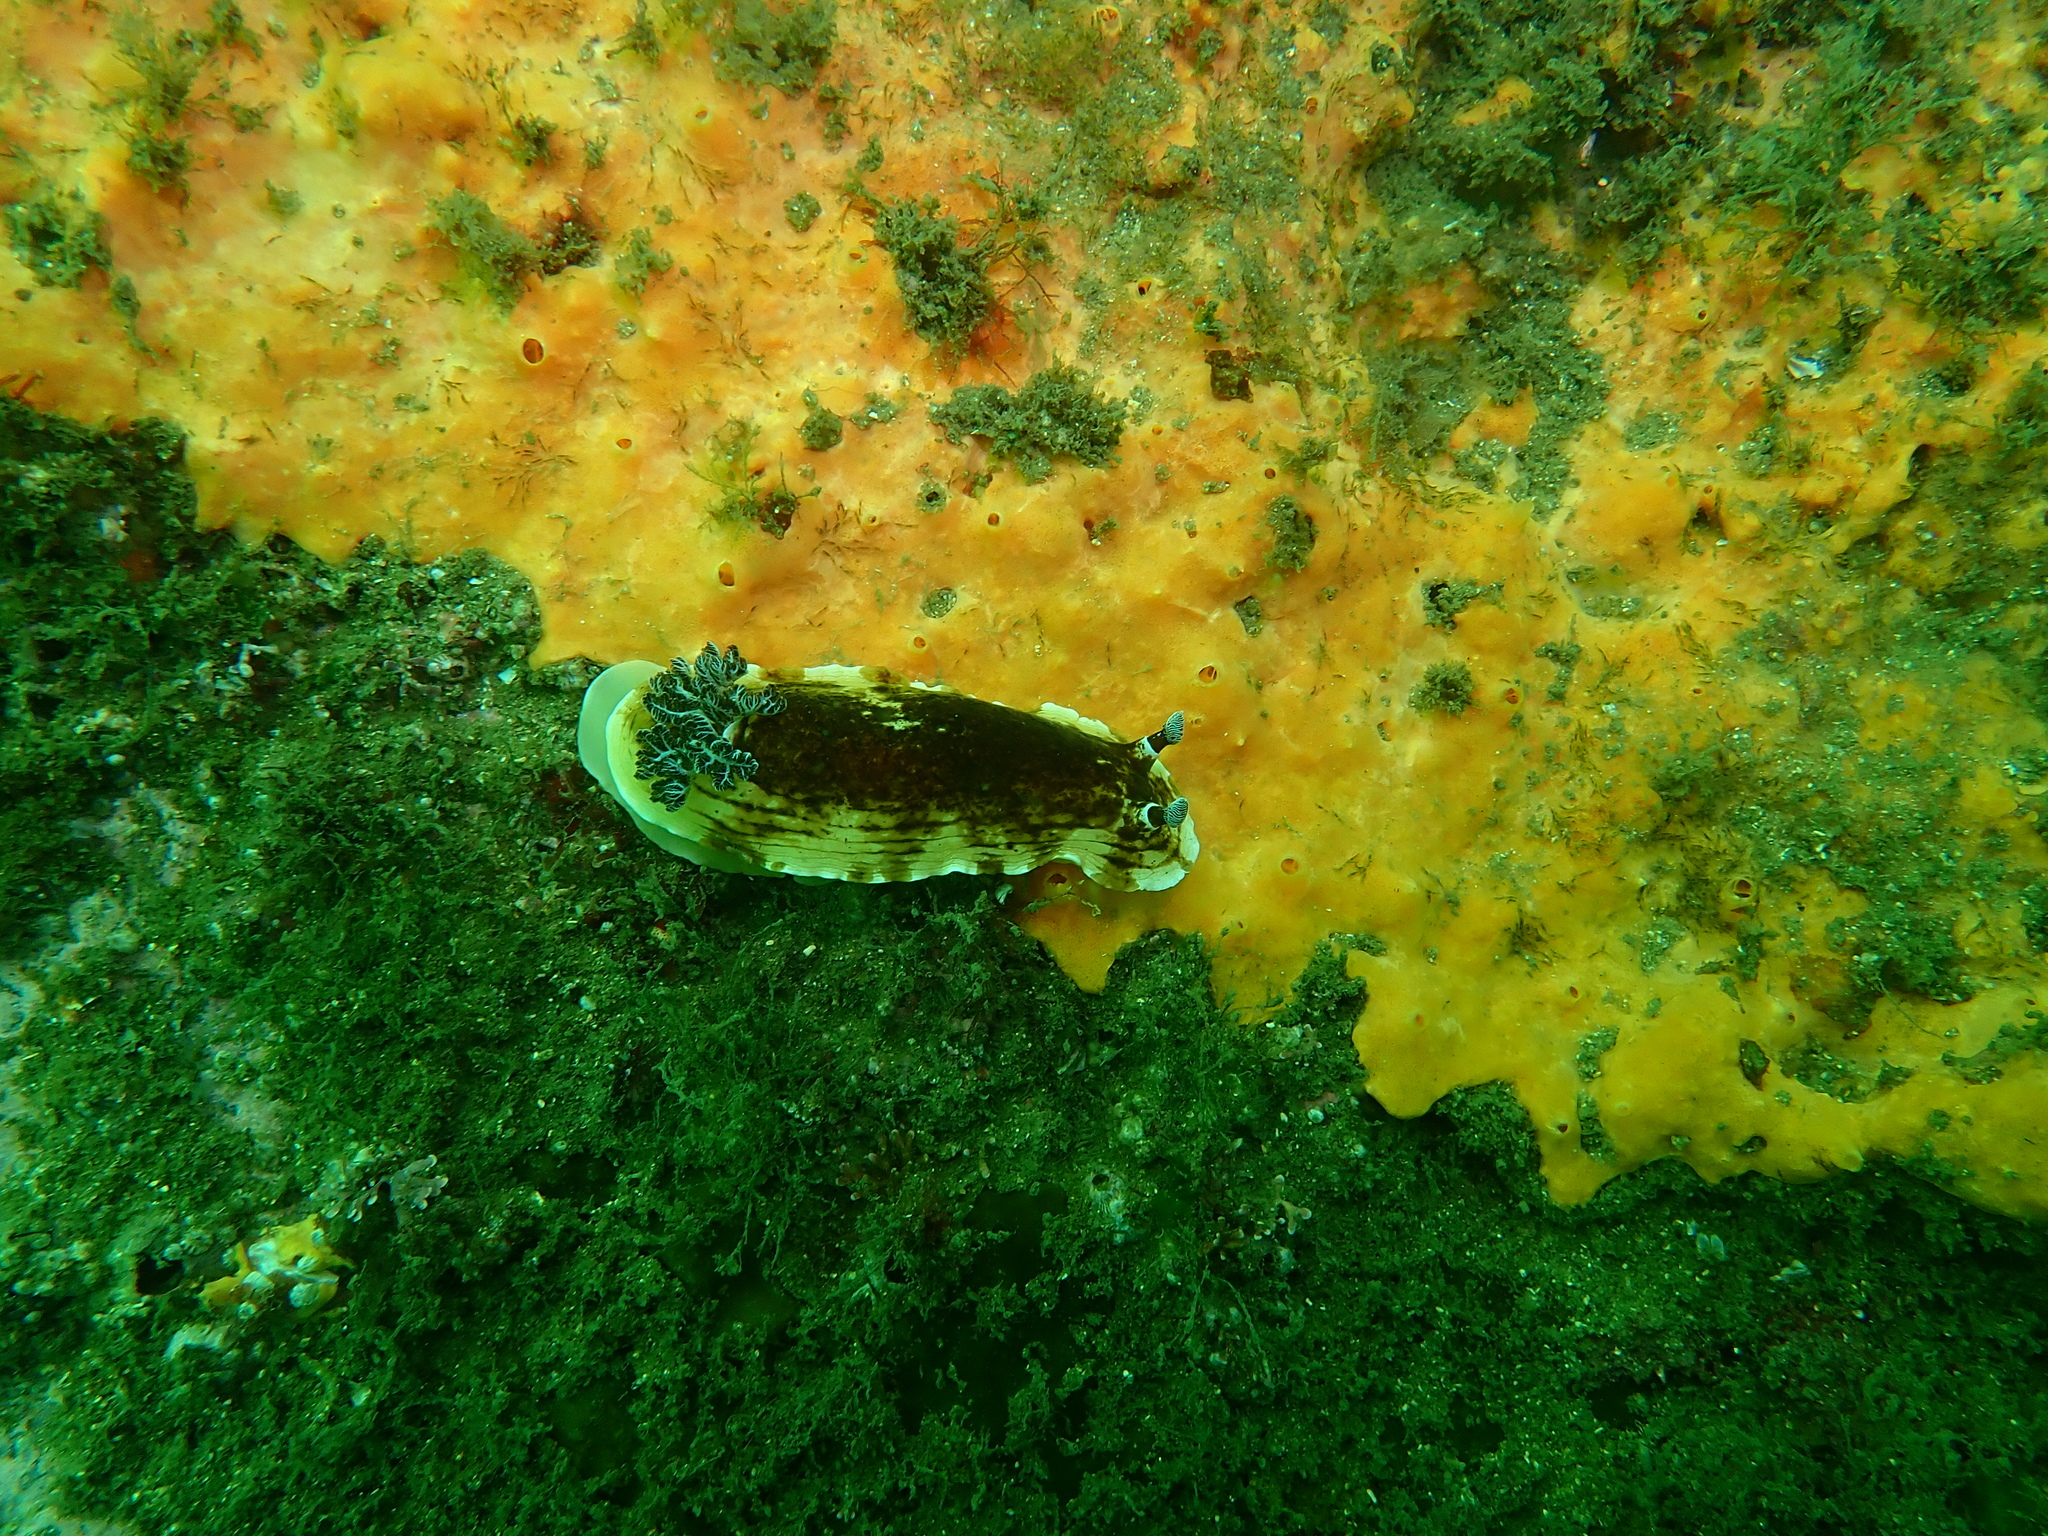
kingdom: Animalia
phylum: Mollusca
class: Gastropoda
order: Nudibranchia
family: Dorididae
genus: Aphelodoris
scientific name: Aphelodoris varia
